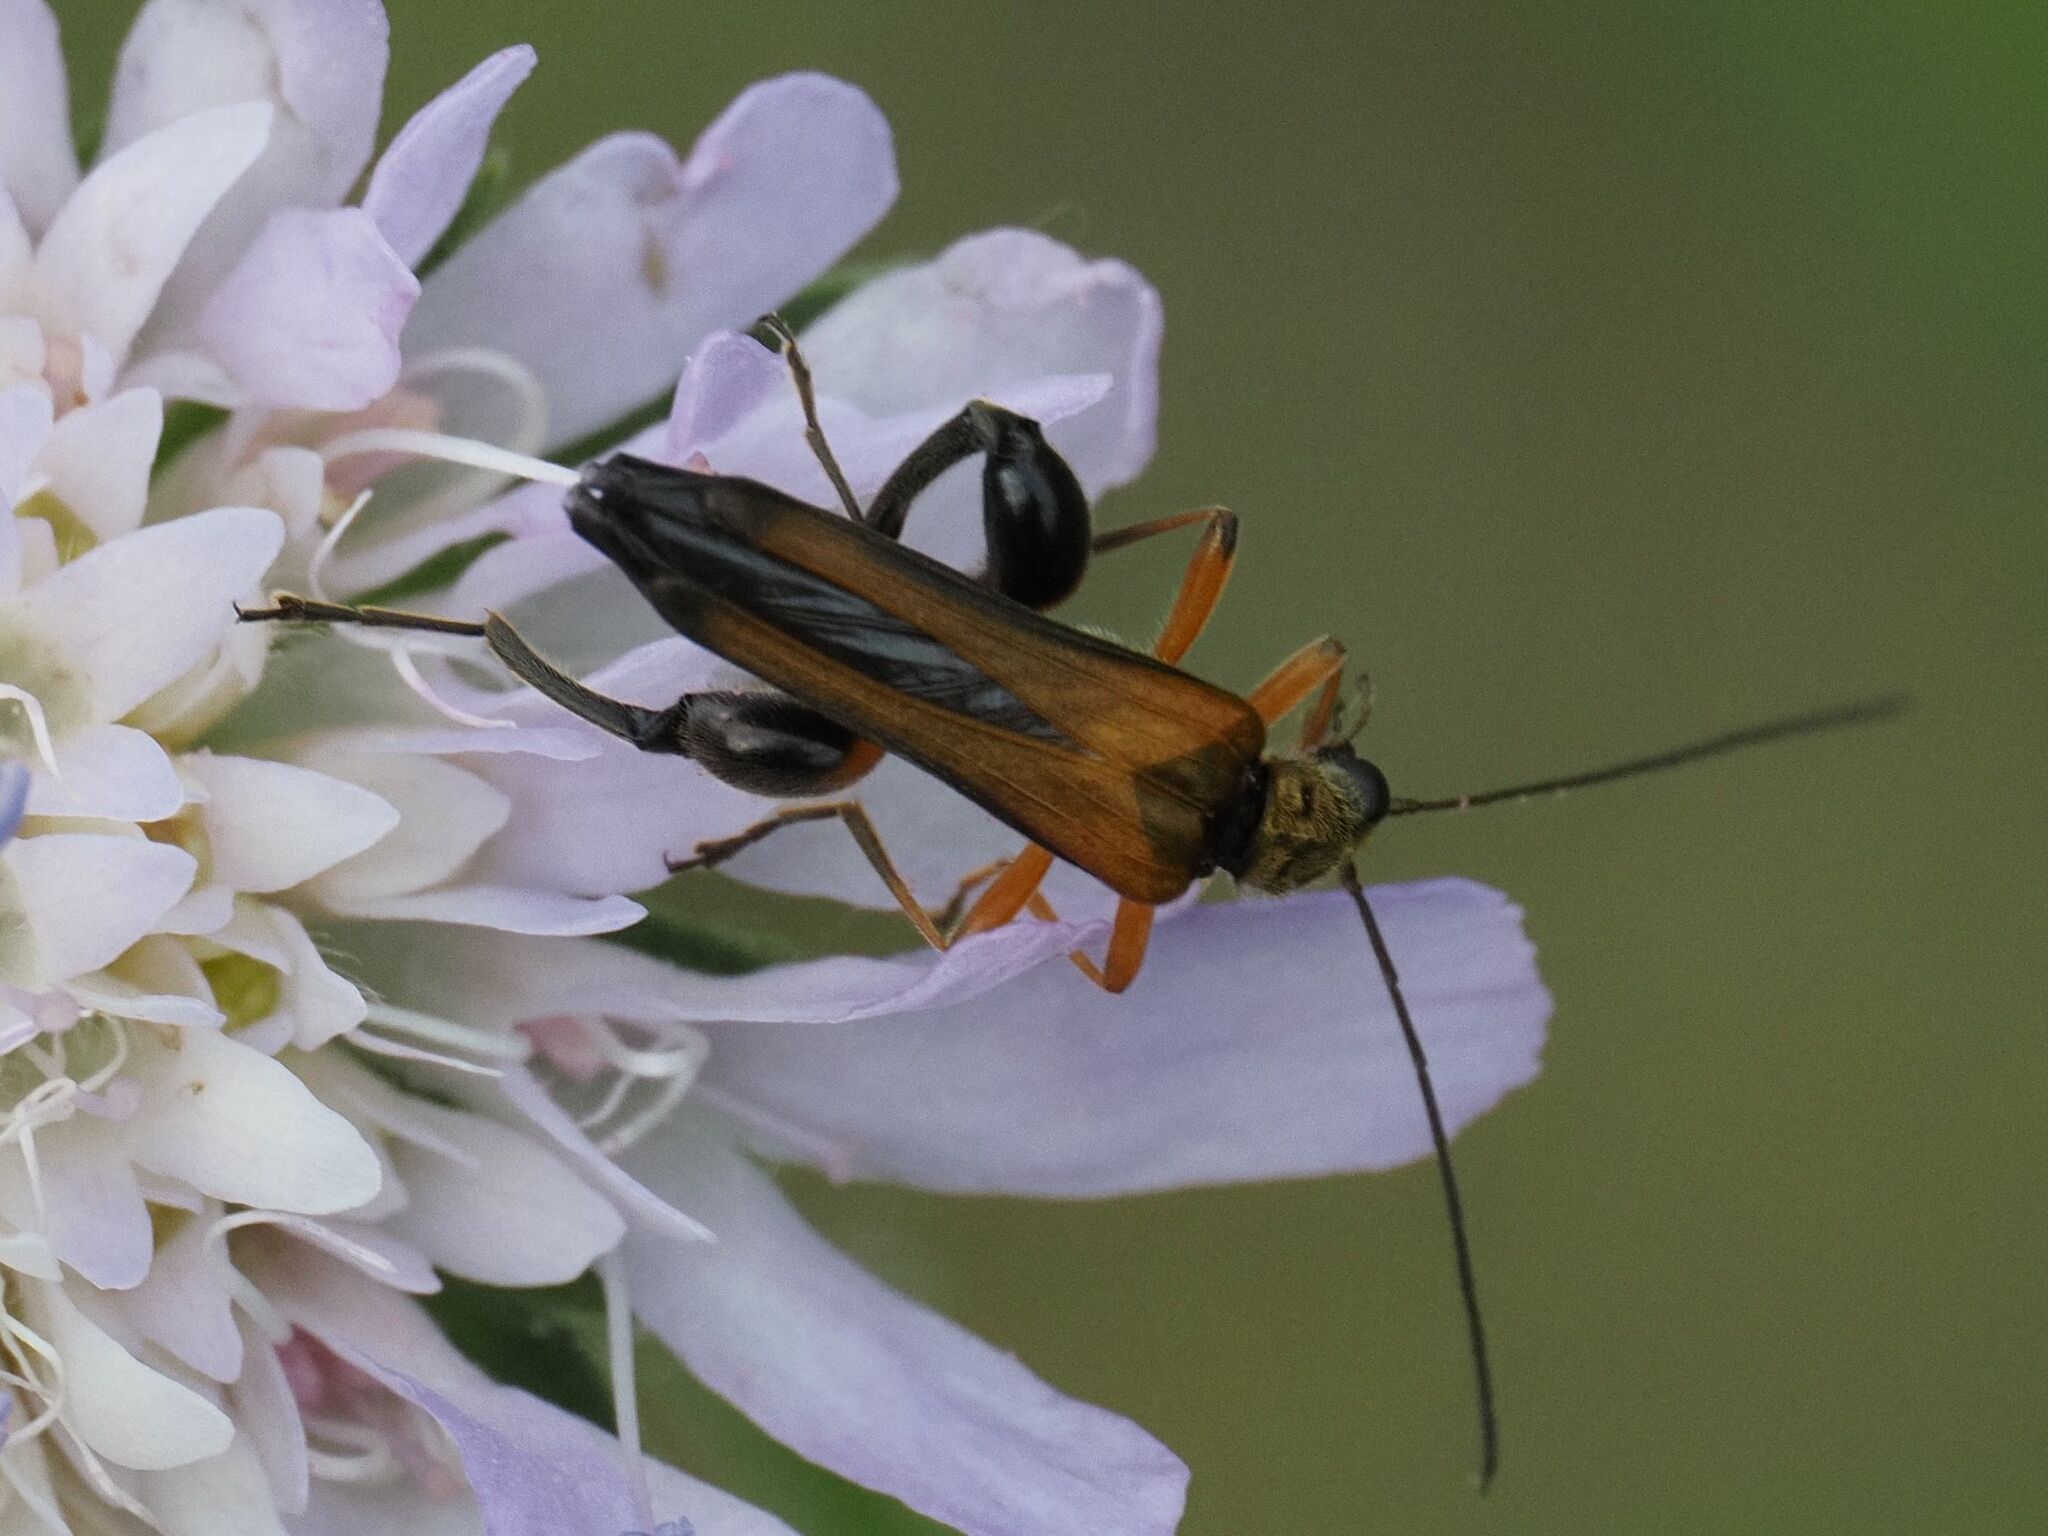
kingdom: Animalia
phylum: Arthropoda
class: Insecta
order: Coleoptera
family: Oedemeridae
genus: Oedemera
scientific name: Oedemera podagrariae
